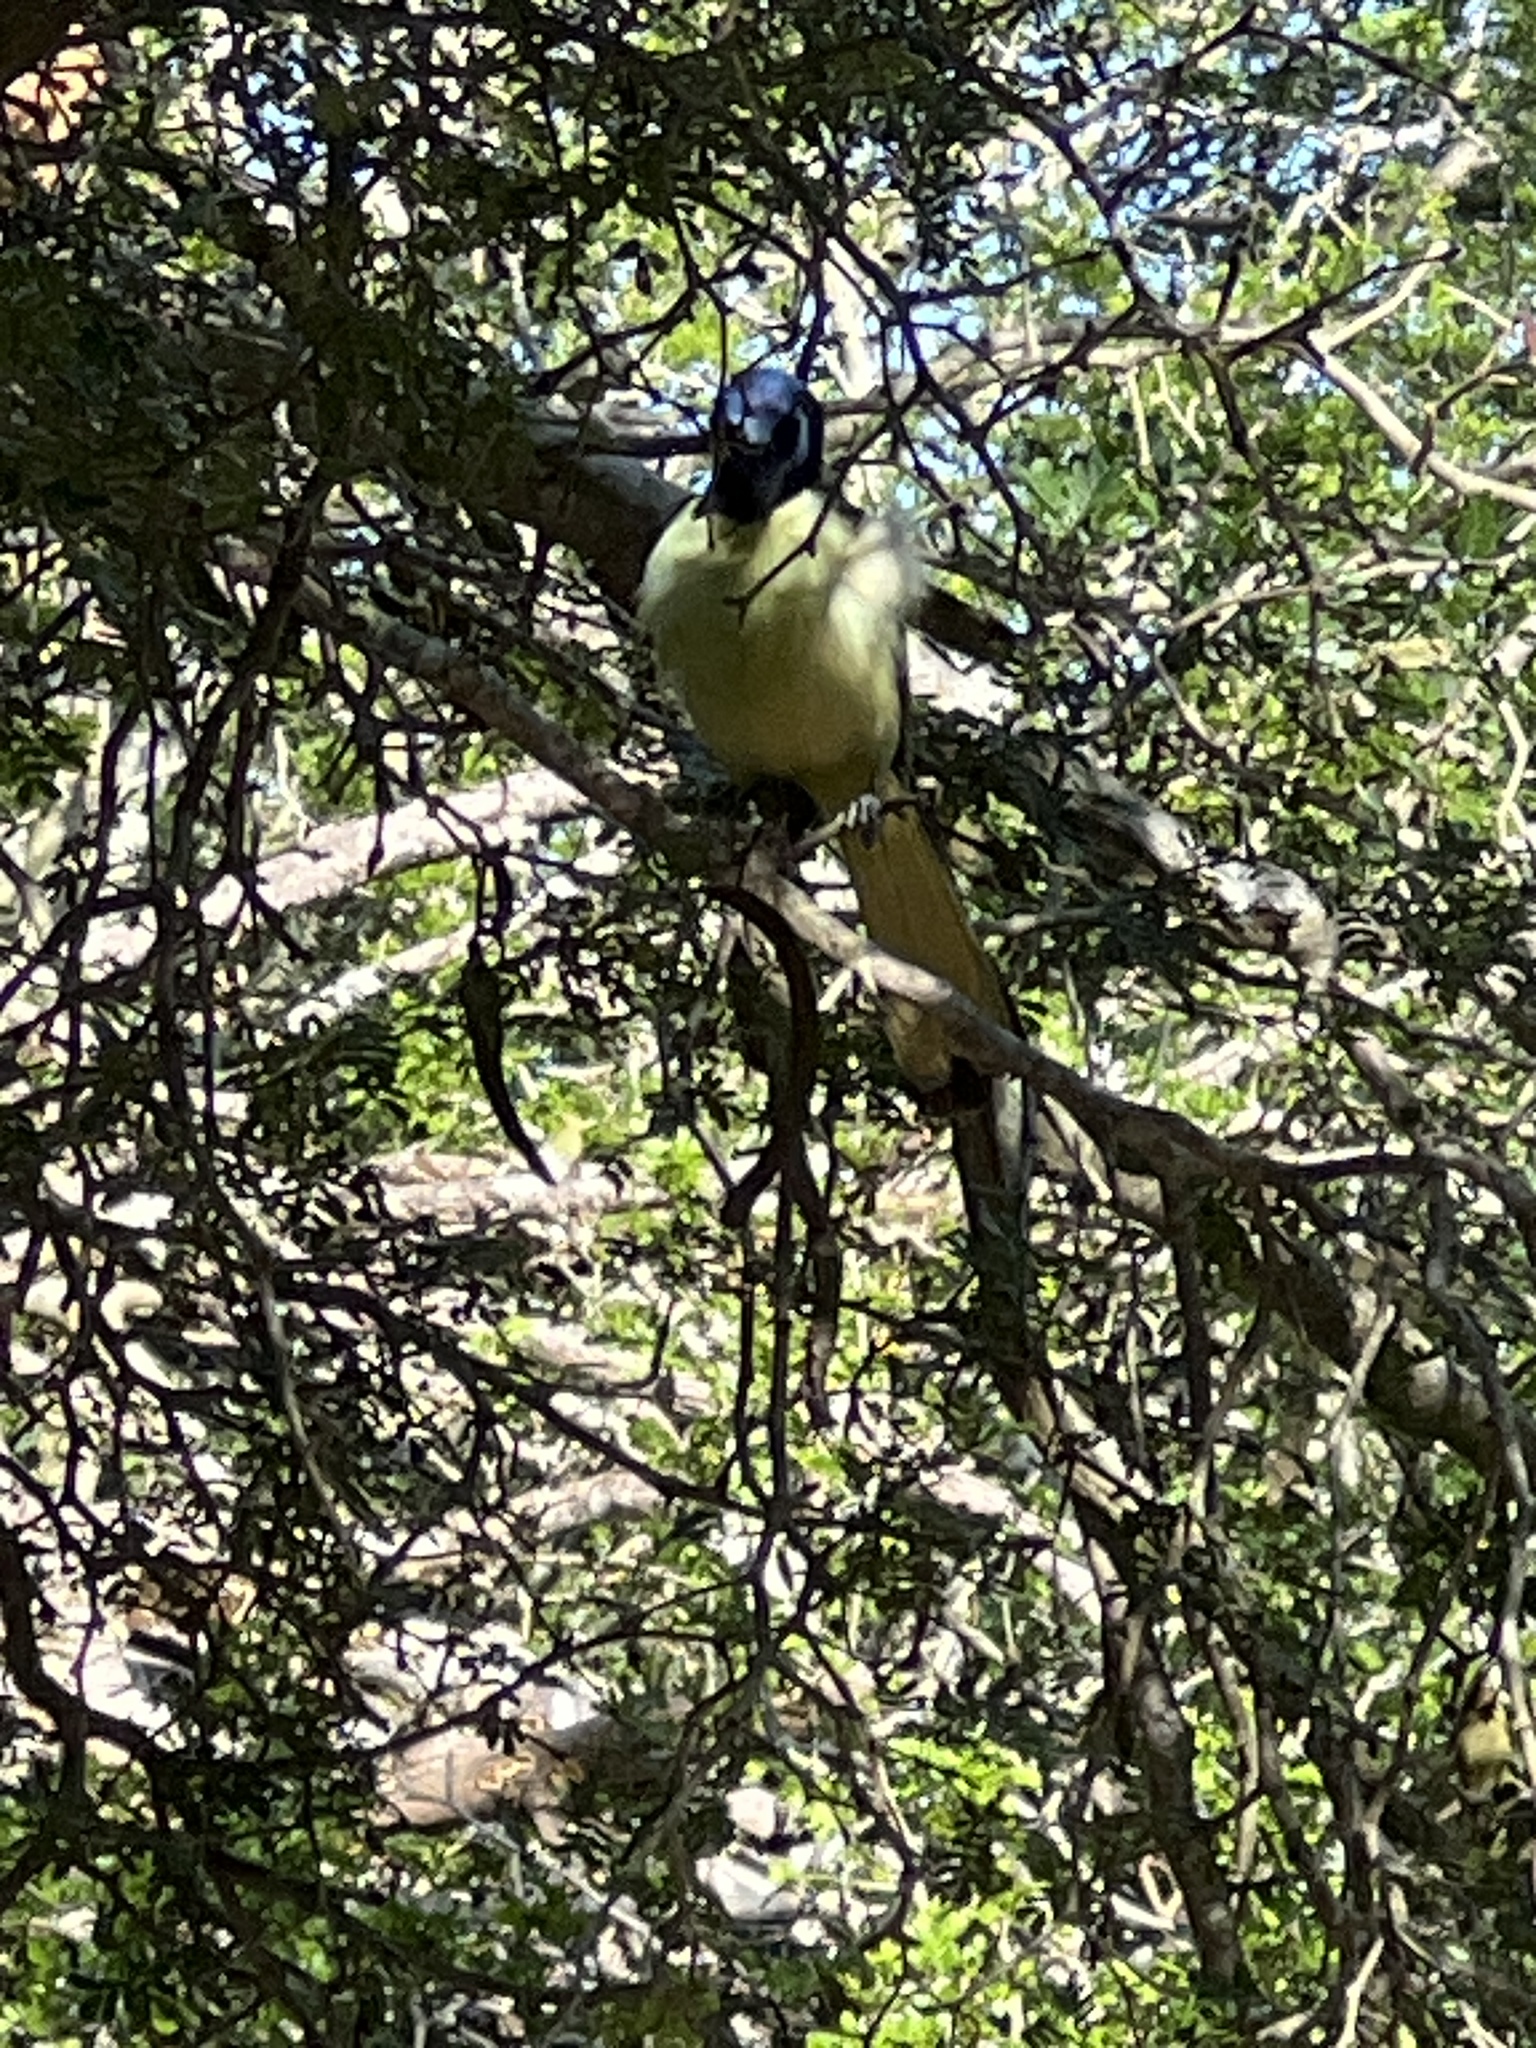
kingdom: Animalia
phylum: Chordata
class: Aves
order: Passeriformes
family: Corvidae
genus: Cyanocorax
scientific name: Cyanocorax yncas
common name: Green jay
